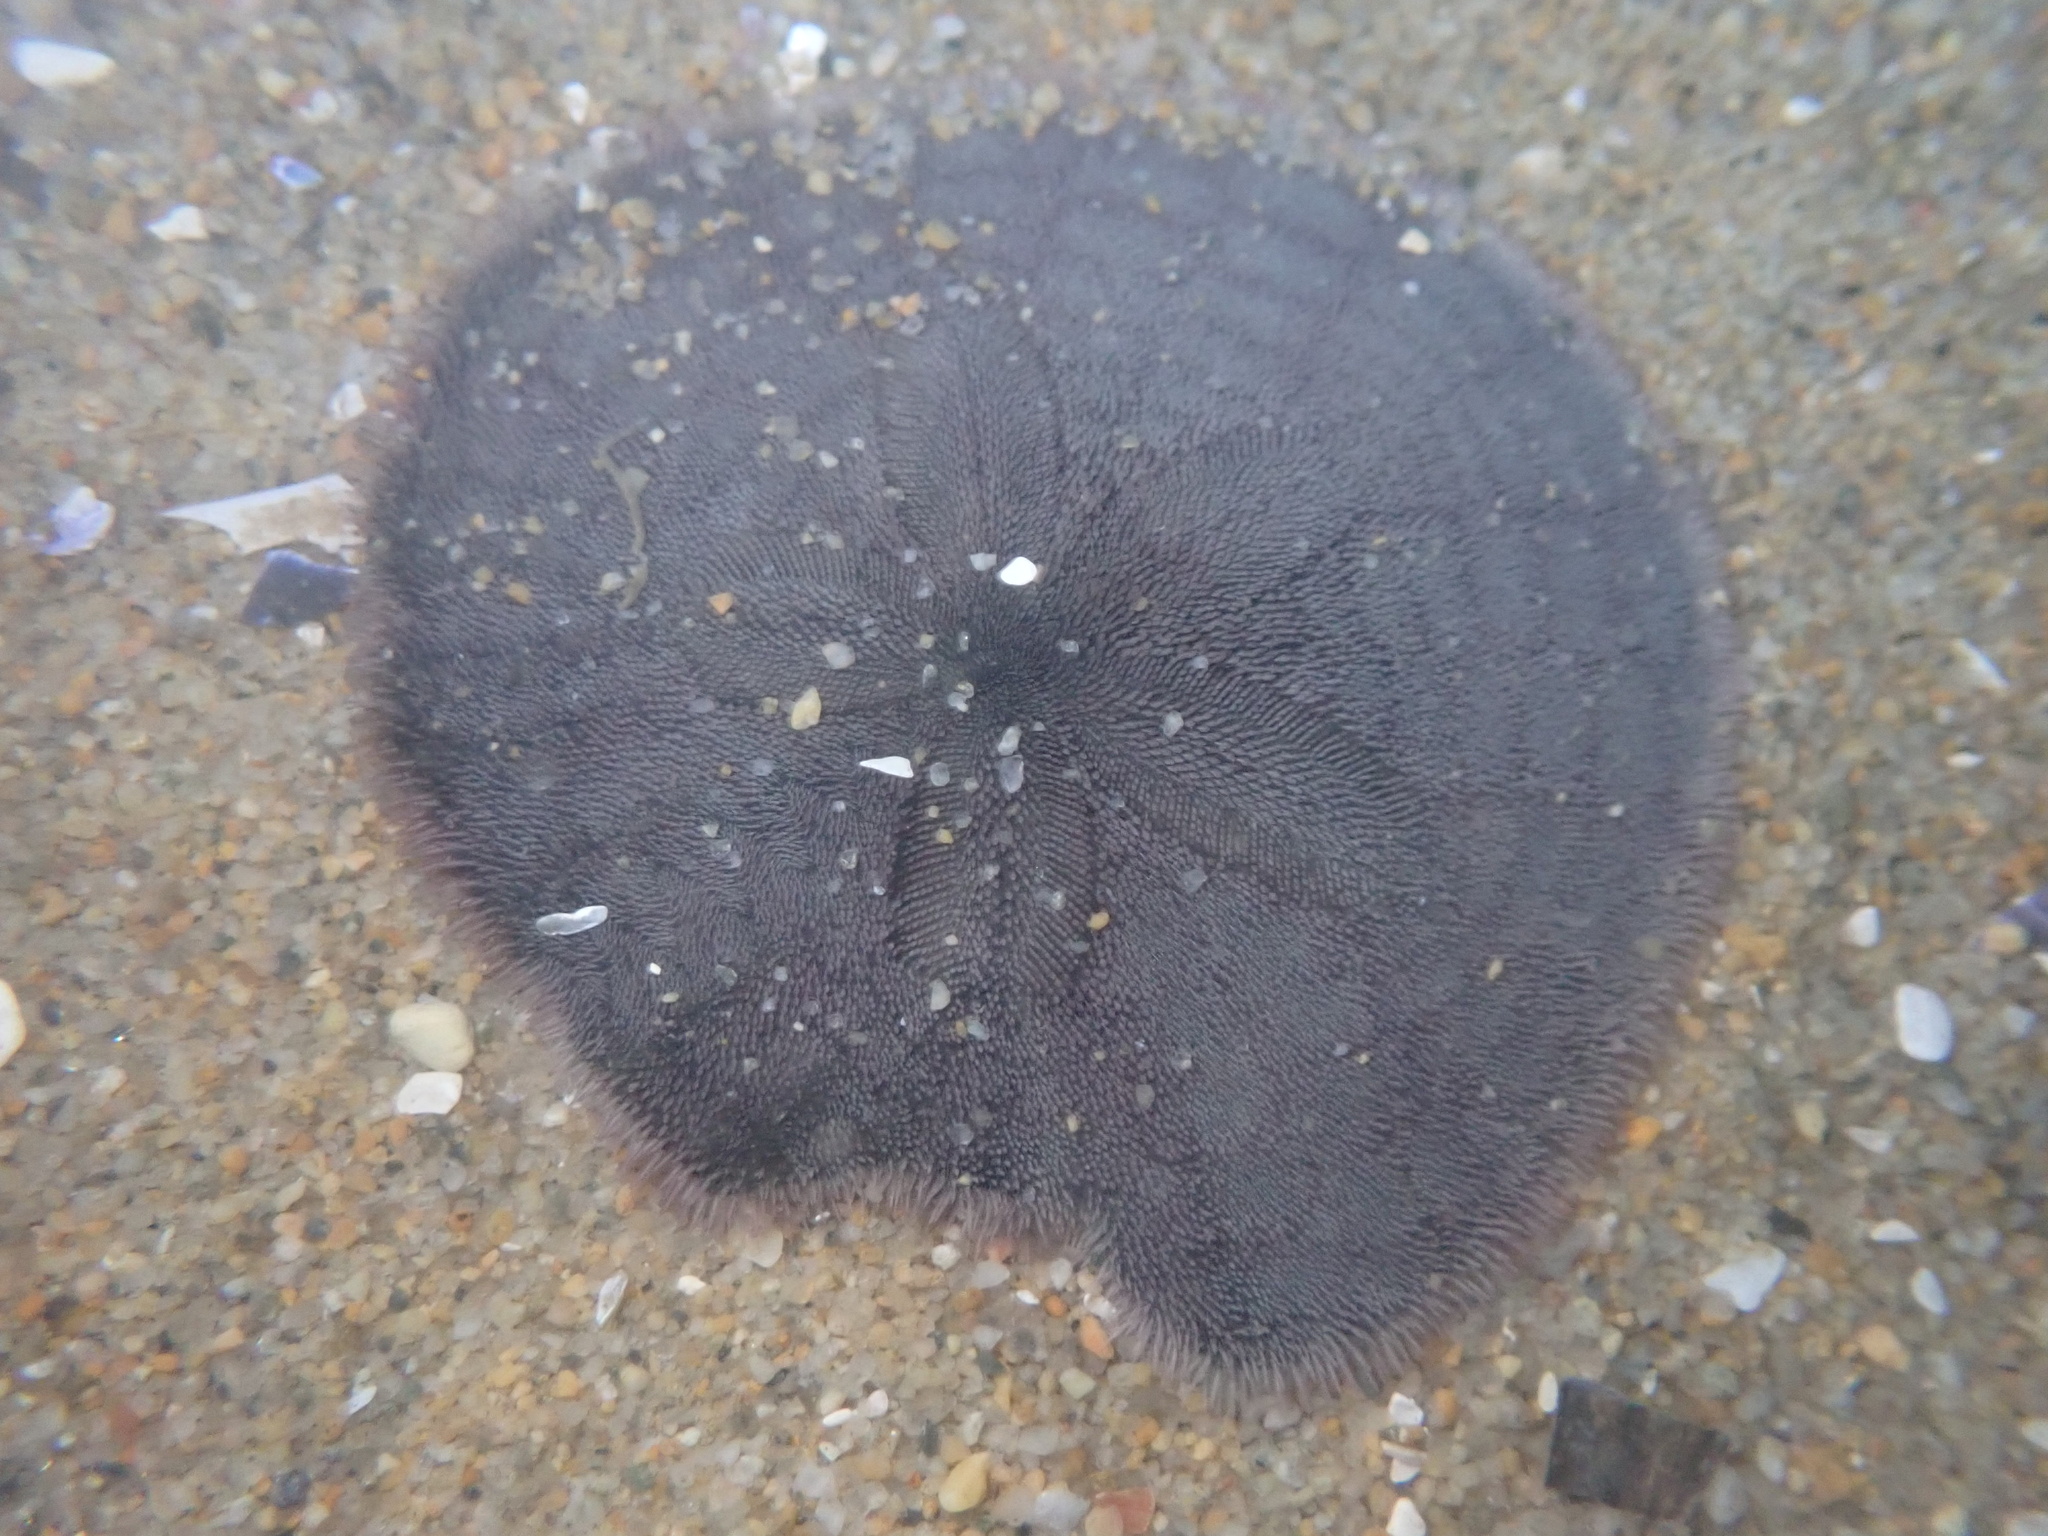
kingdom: Animalia
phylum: Echinodermata
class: Echinoidea
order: Echinolampadacea
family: Dendrasteridae
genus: Dendraster
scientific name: Dendraster excentricus
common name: Eccentric sand dollar sea urchin
